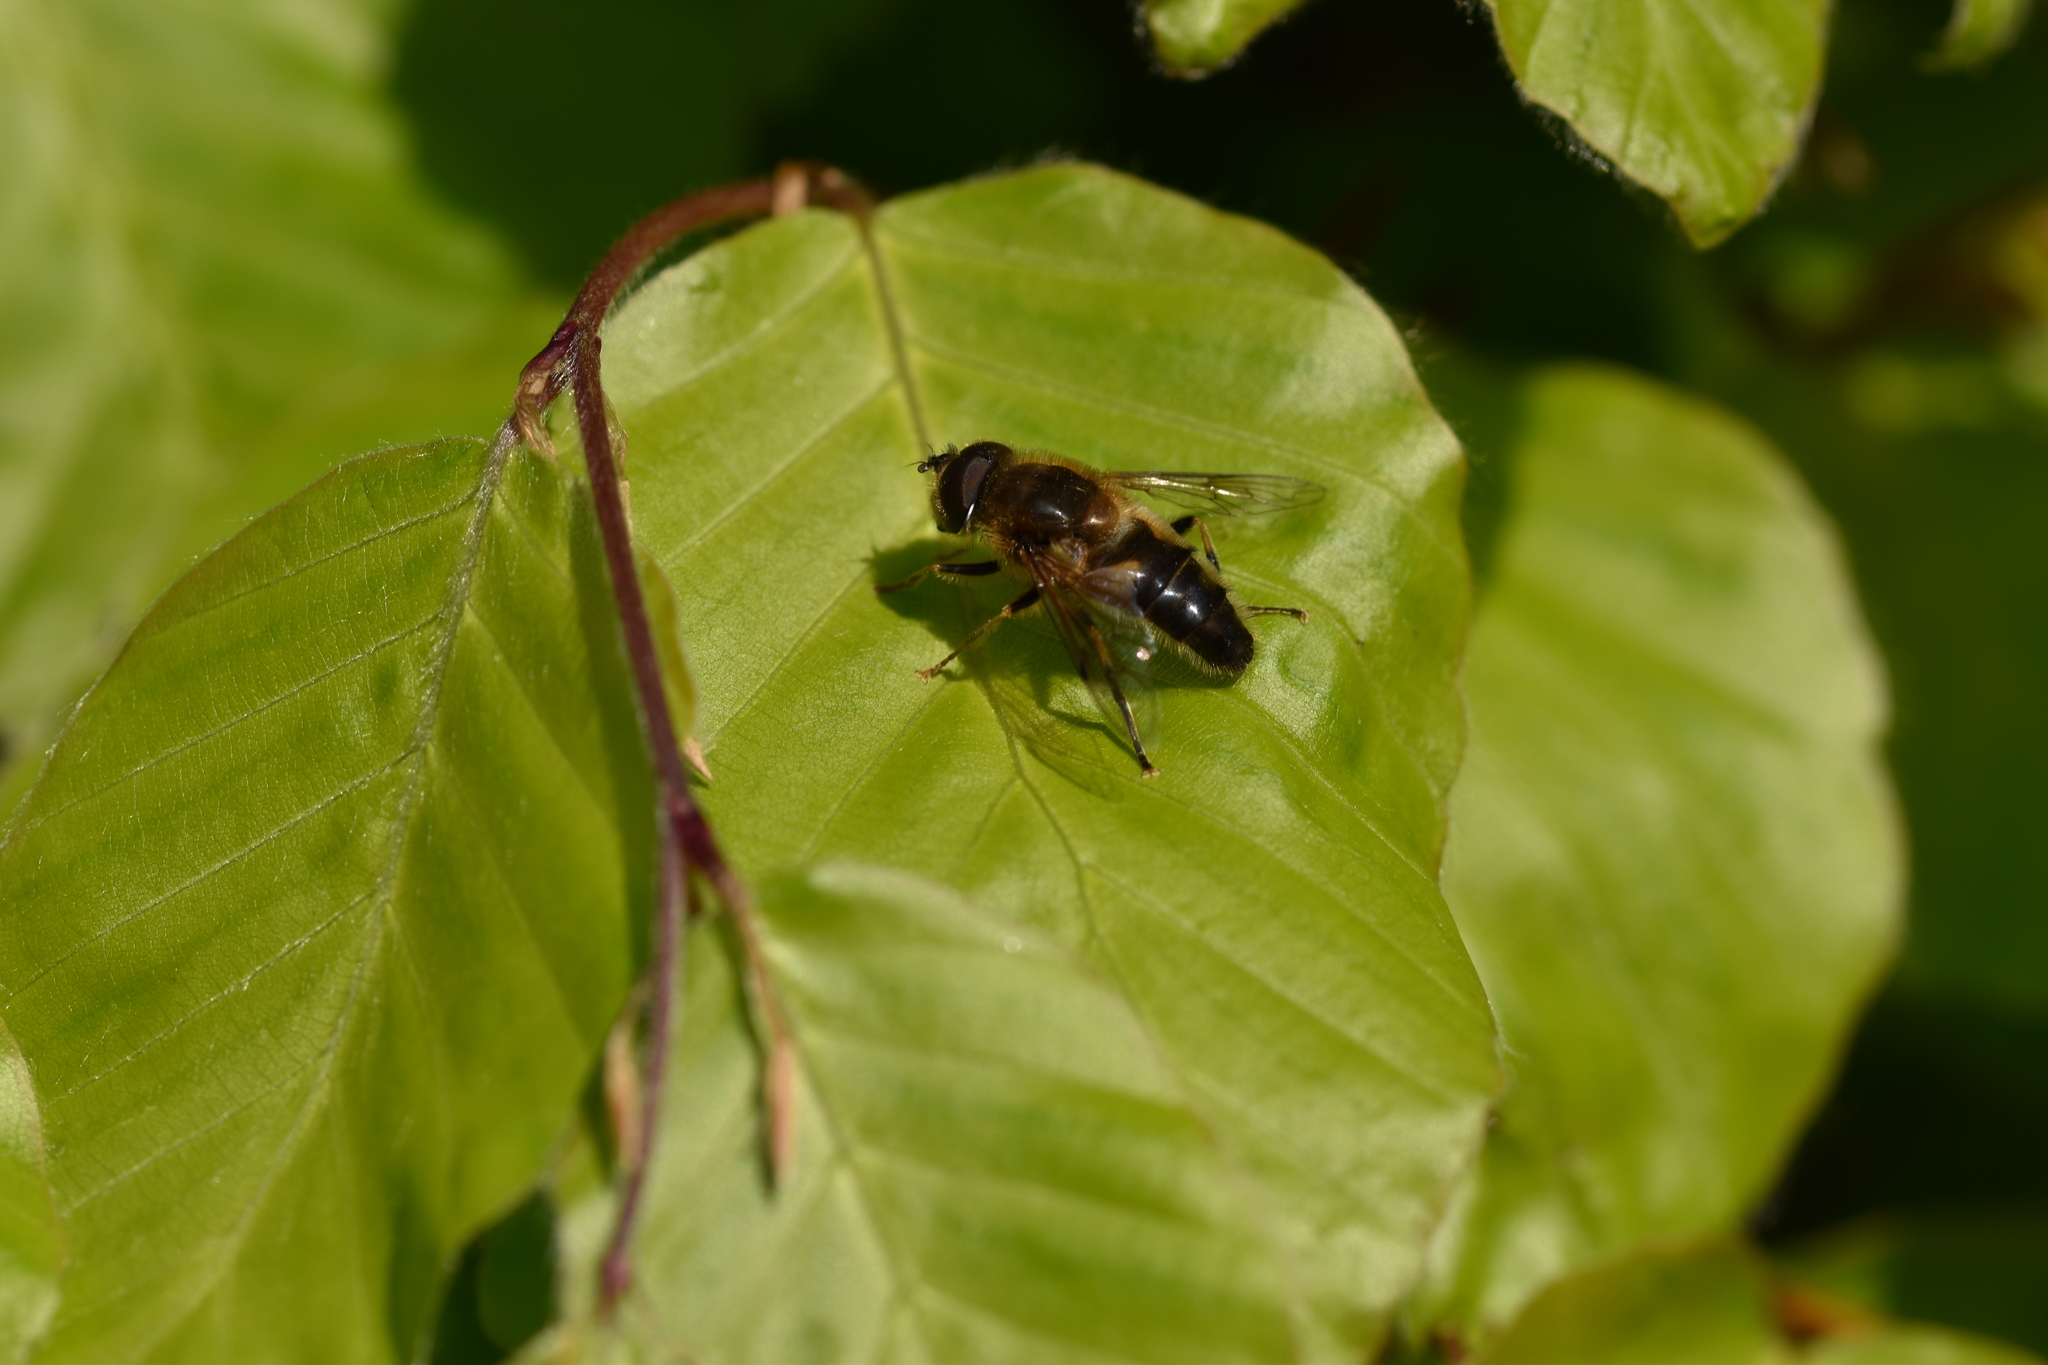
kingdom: Animalia
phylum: Arthropoda
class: Insecta
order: Diptera
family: Syrphidae
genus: Eristalis
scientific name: Eristalis pertinax
